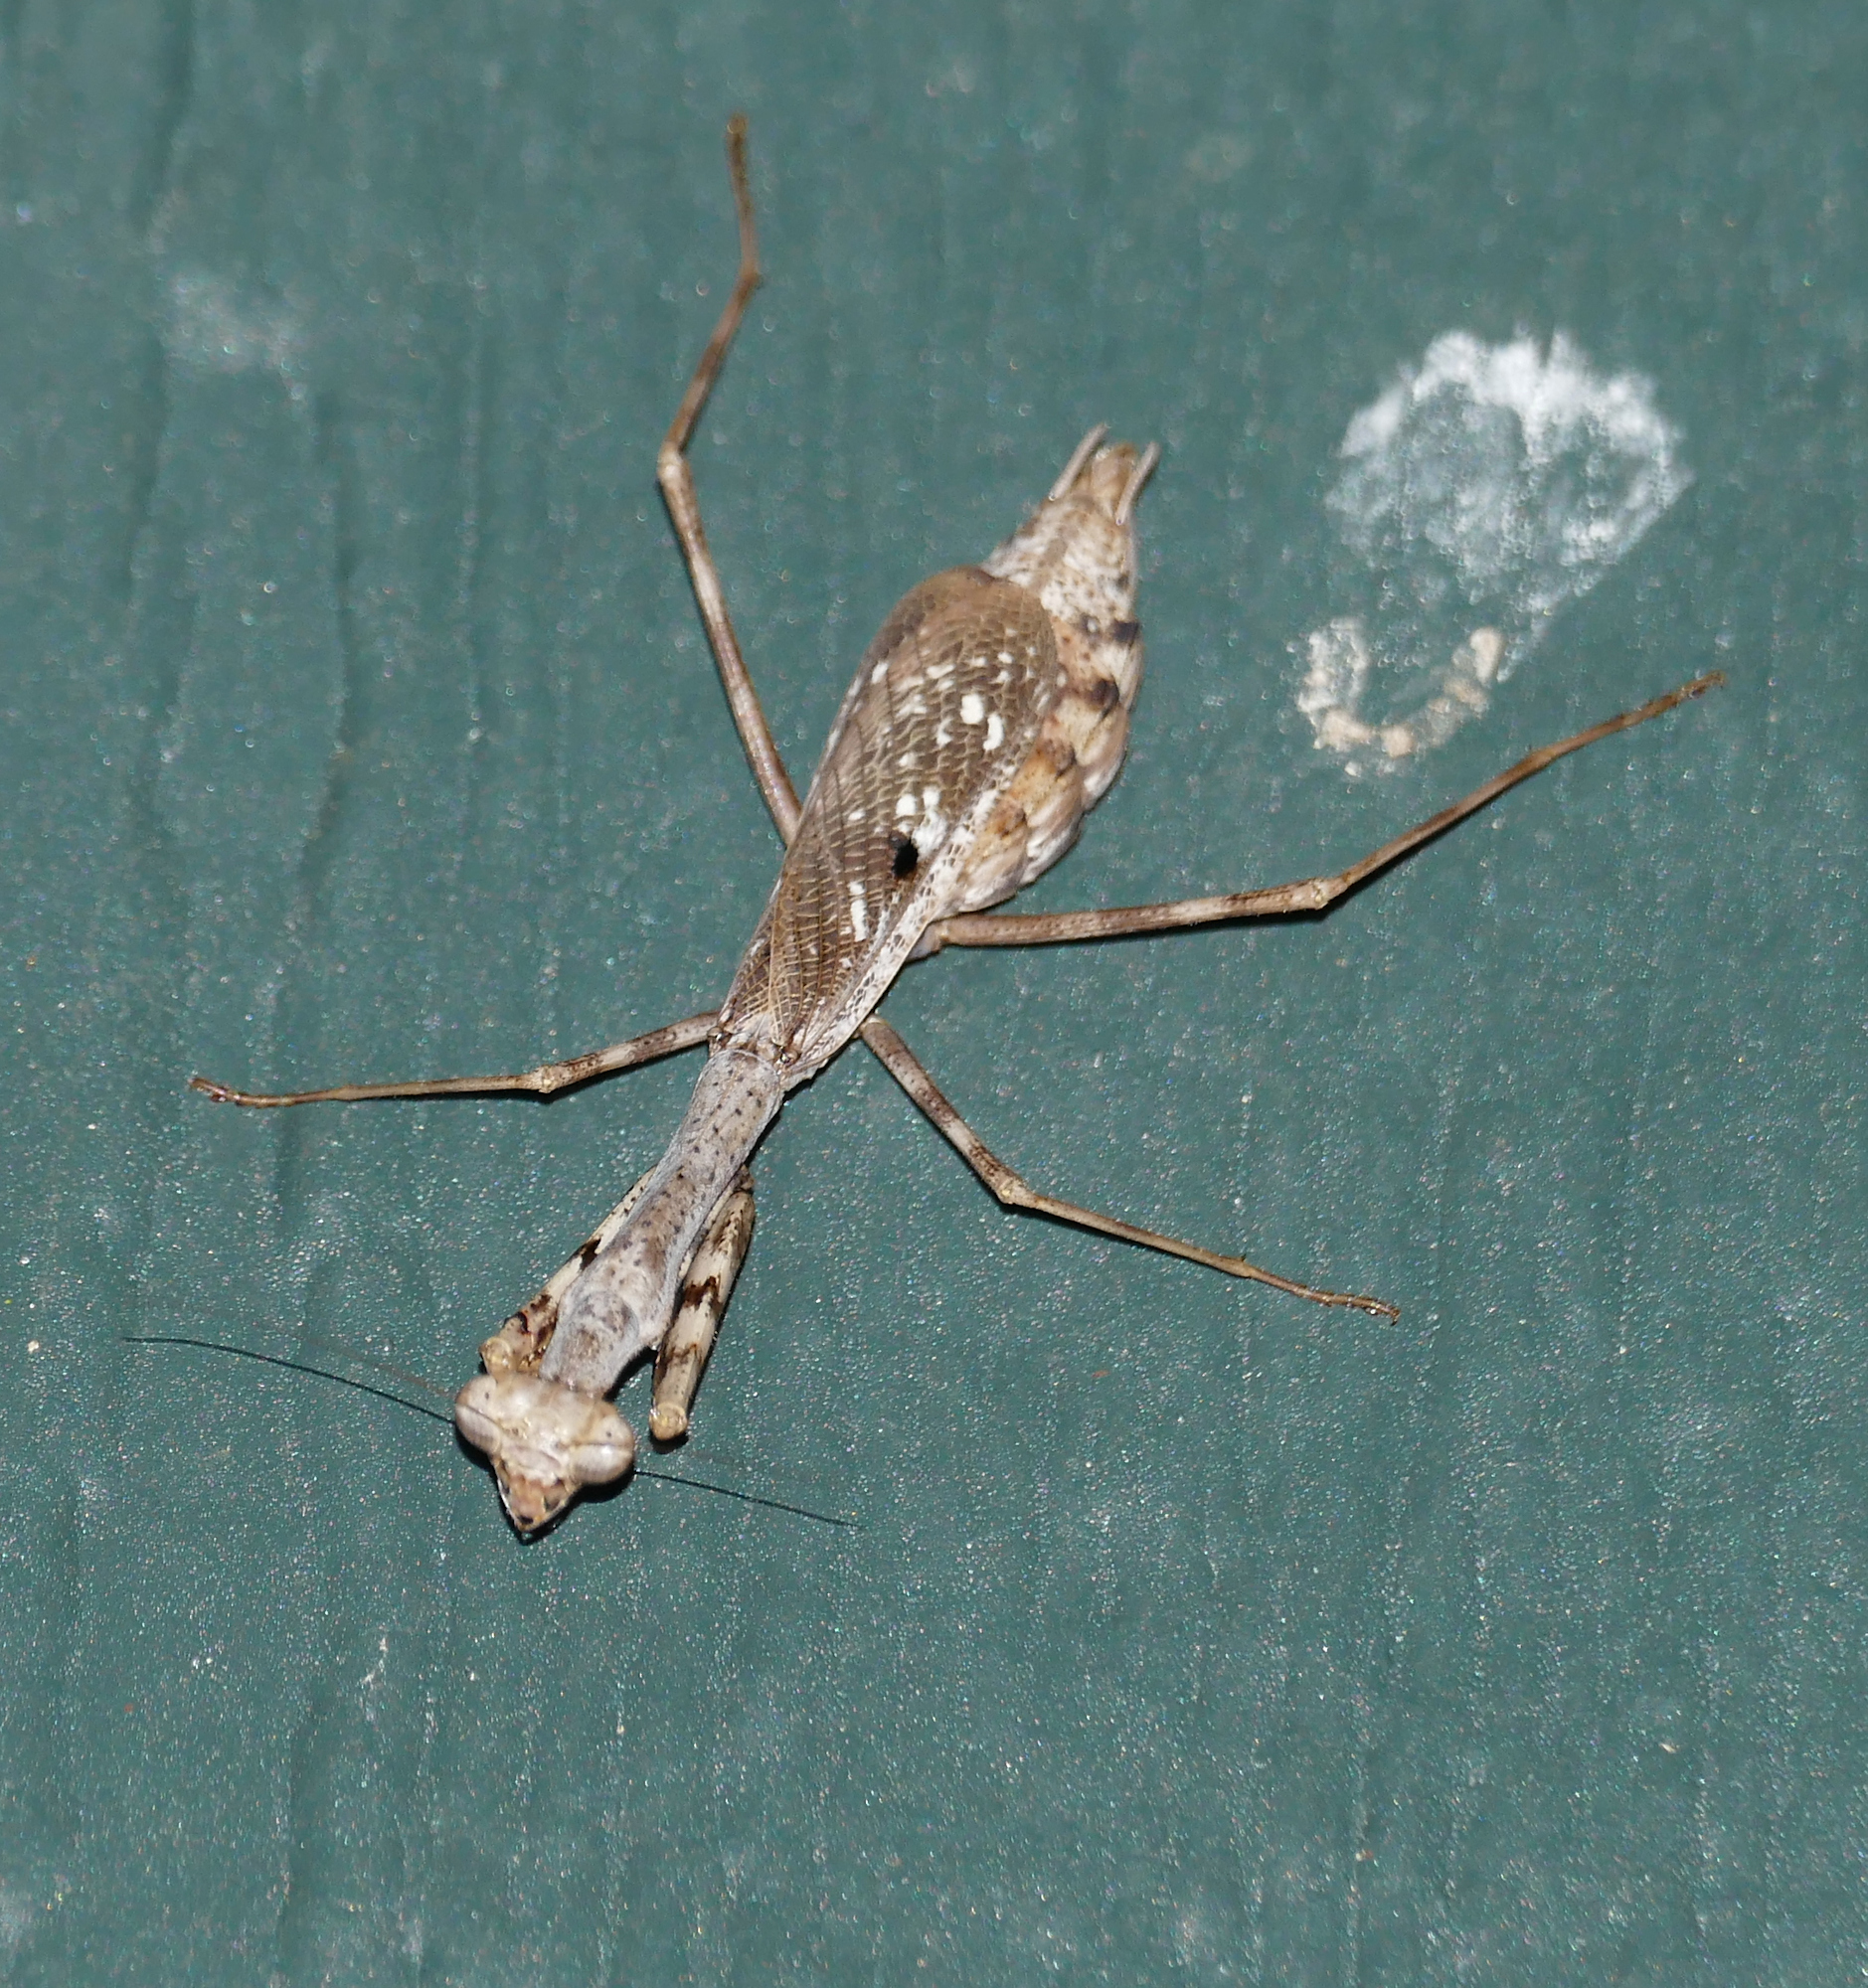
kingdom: Animalia
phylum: Arthropoda
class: Insecta
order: Mantodea
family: Mantidae
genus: Stagmomantis
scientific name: Stagmomantis carolina
